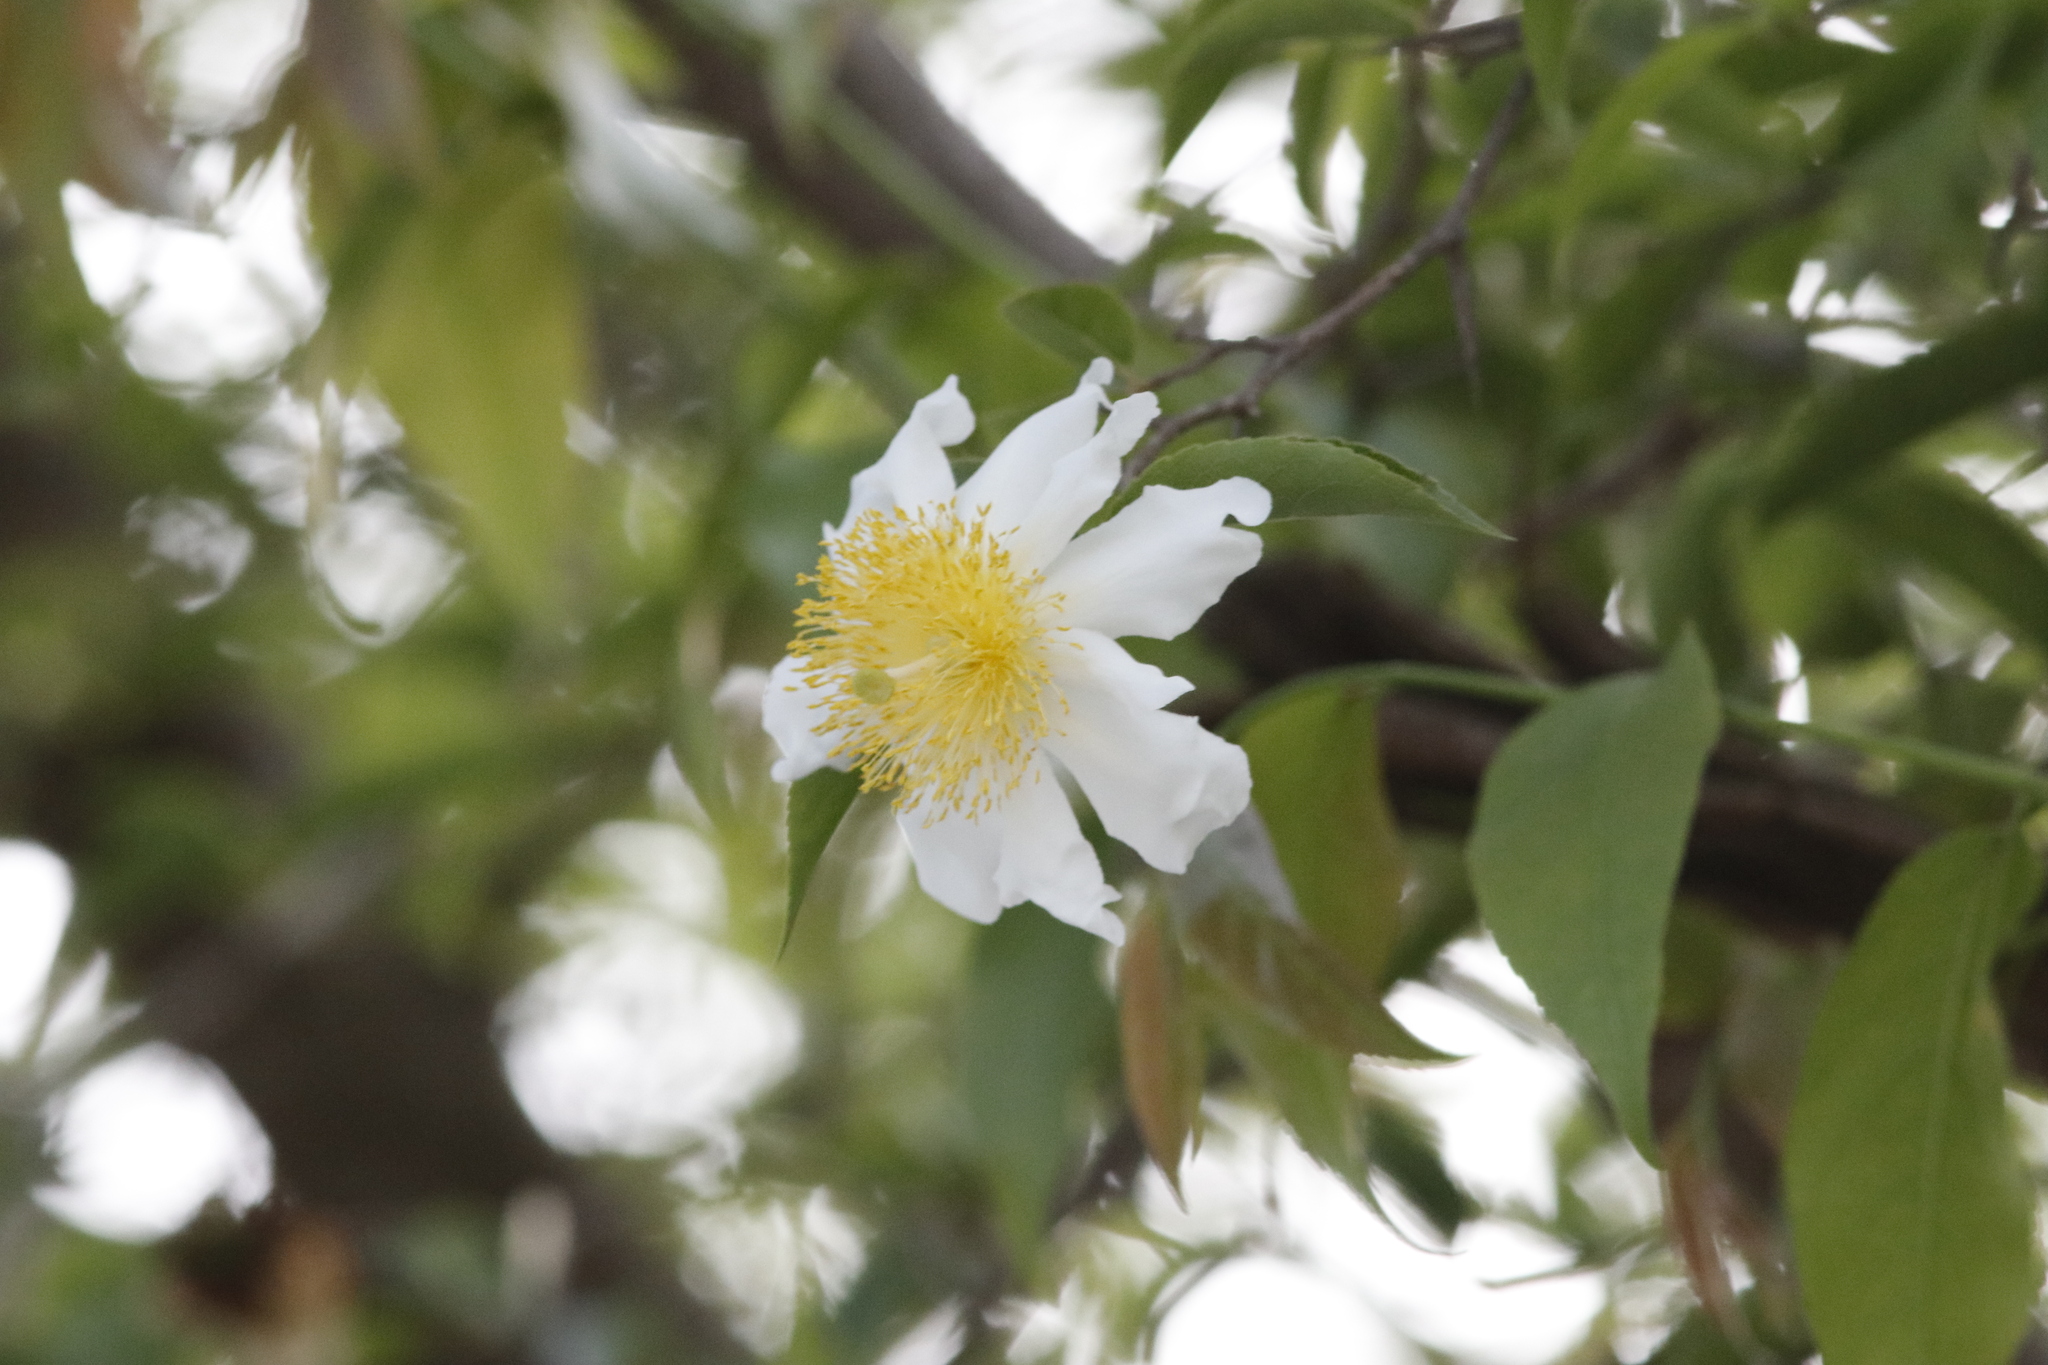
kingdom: Plantae
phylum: Tracheophyta
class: Magnoliopsida
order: Malpighiales
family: Salicaceae
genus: Oncoba
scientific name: Oncoba spinosa
